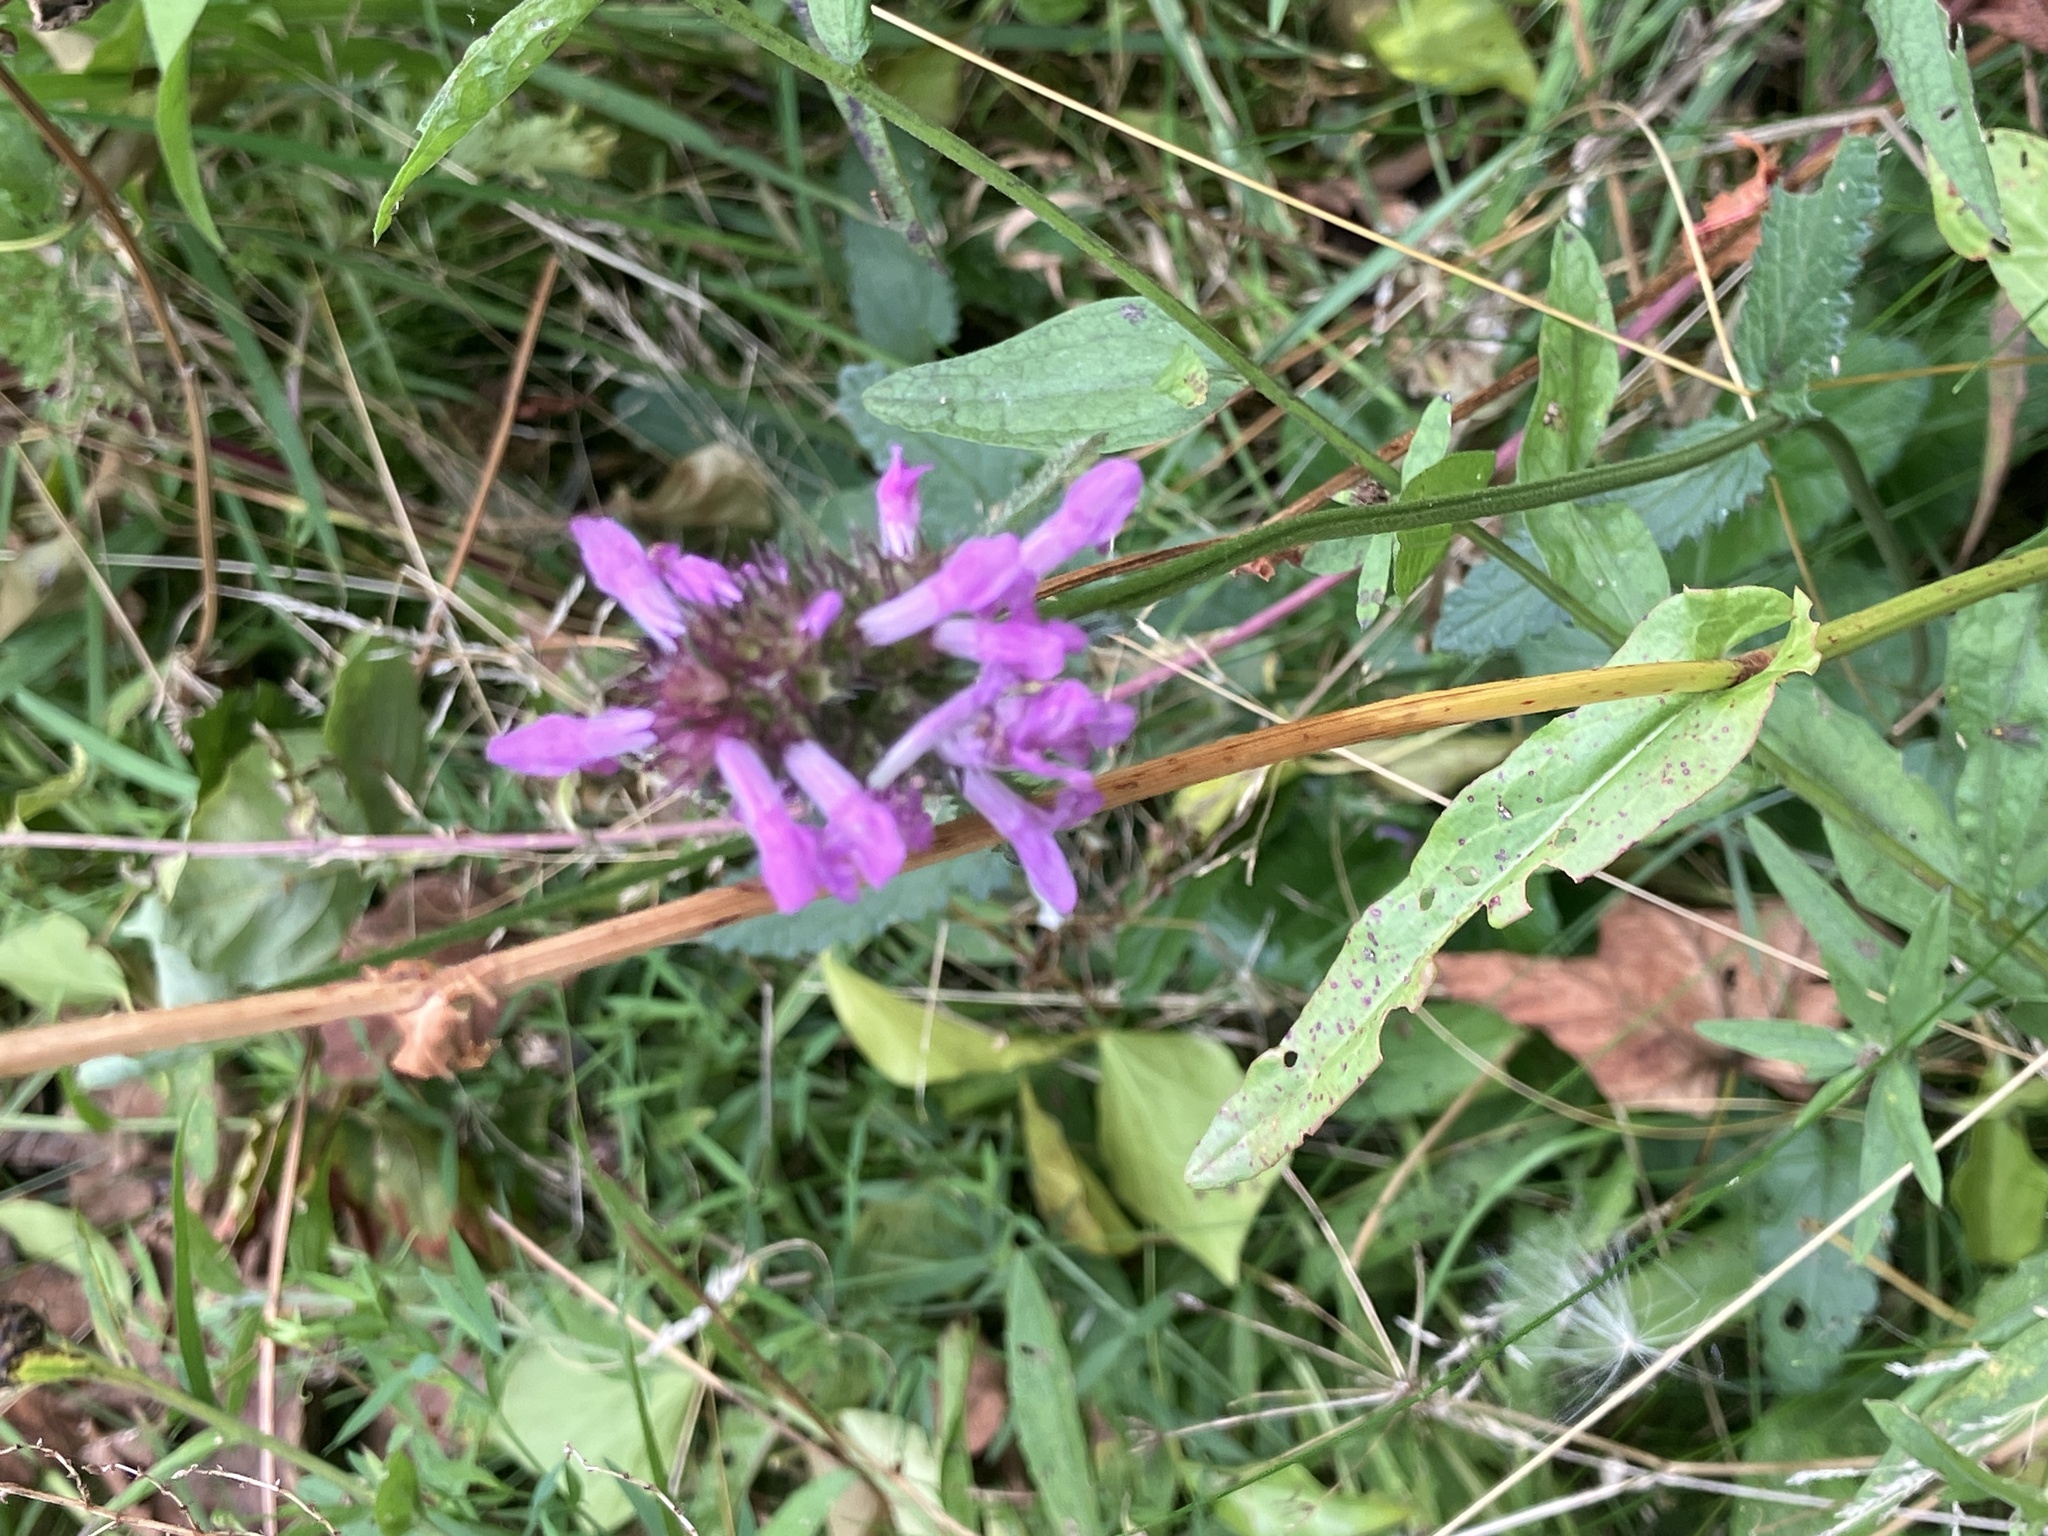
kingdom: Plantae
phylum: Tracheophyta
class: Magnoliopsida
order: Lamiales
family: Lamiaceae
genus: Betonica
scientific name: Betonica officinalis
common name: Bishop's-wort
